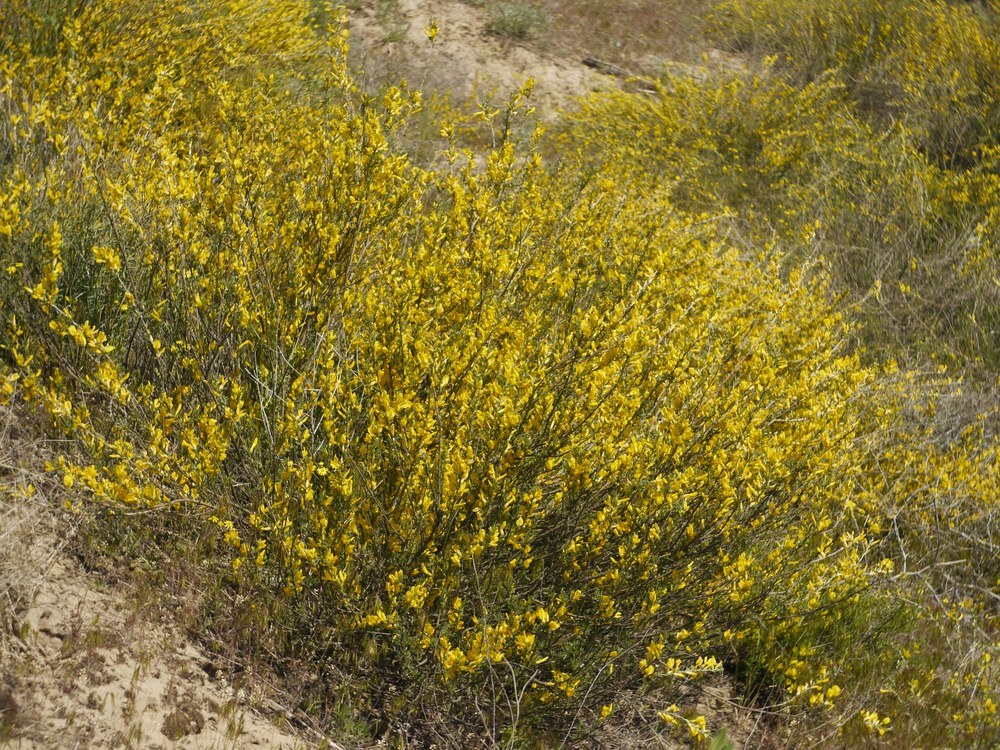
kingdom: Plantae
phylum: Tracheophyta
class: Magnoliopsida
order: Fabales
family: Fabaceae
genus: Chamaecytisus
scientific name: Chamaecytisus borysthenicus
